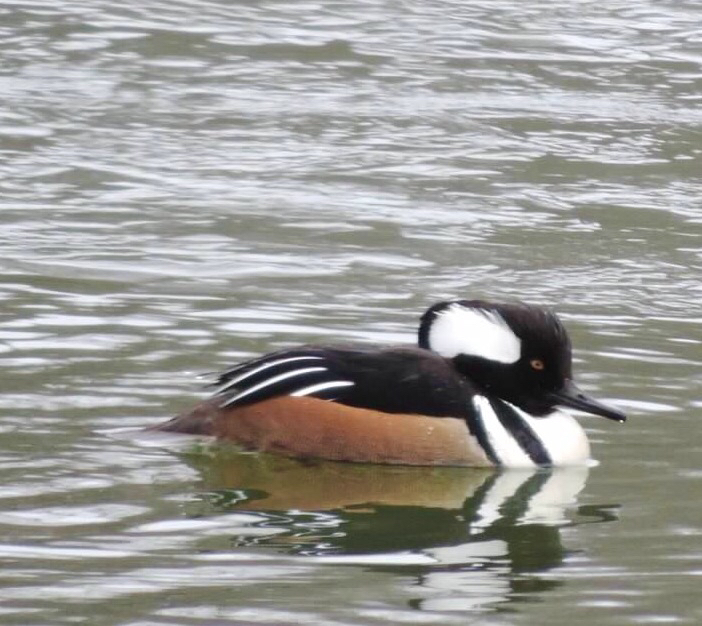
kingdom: Animalia
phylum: Chordata
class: Aves
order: Anseriformes
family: Anatidae
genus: Lophodytes
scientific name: Lophodytes cucullatus
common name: Hooded merganser
